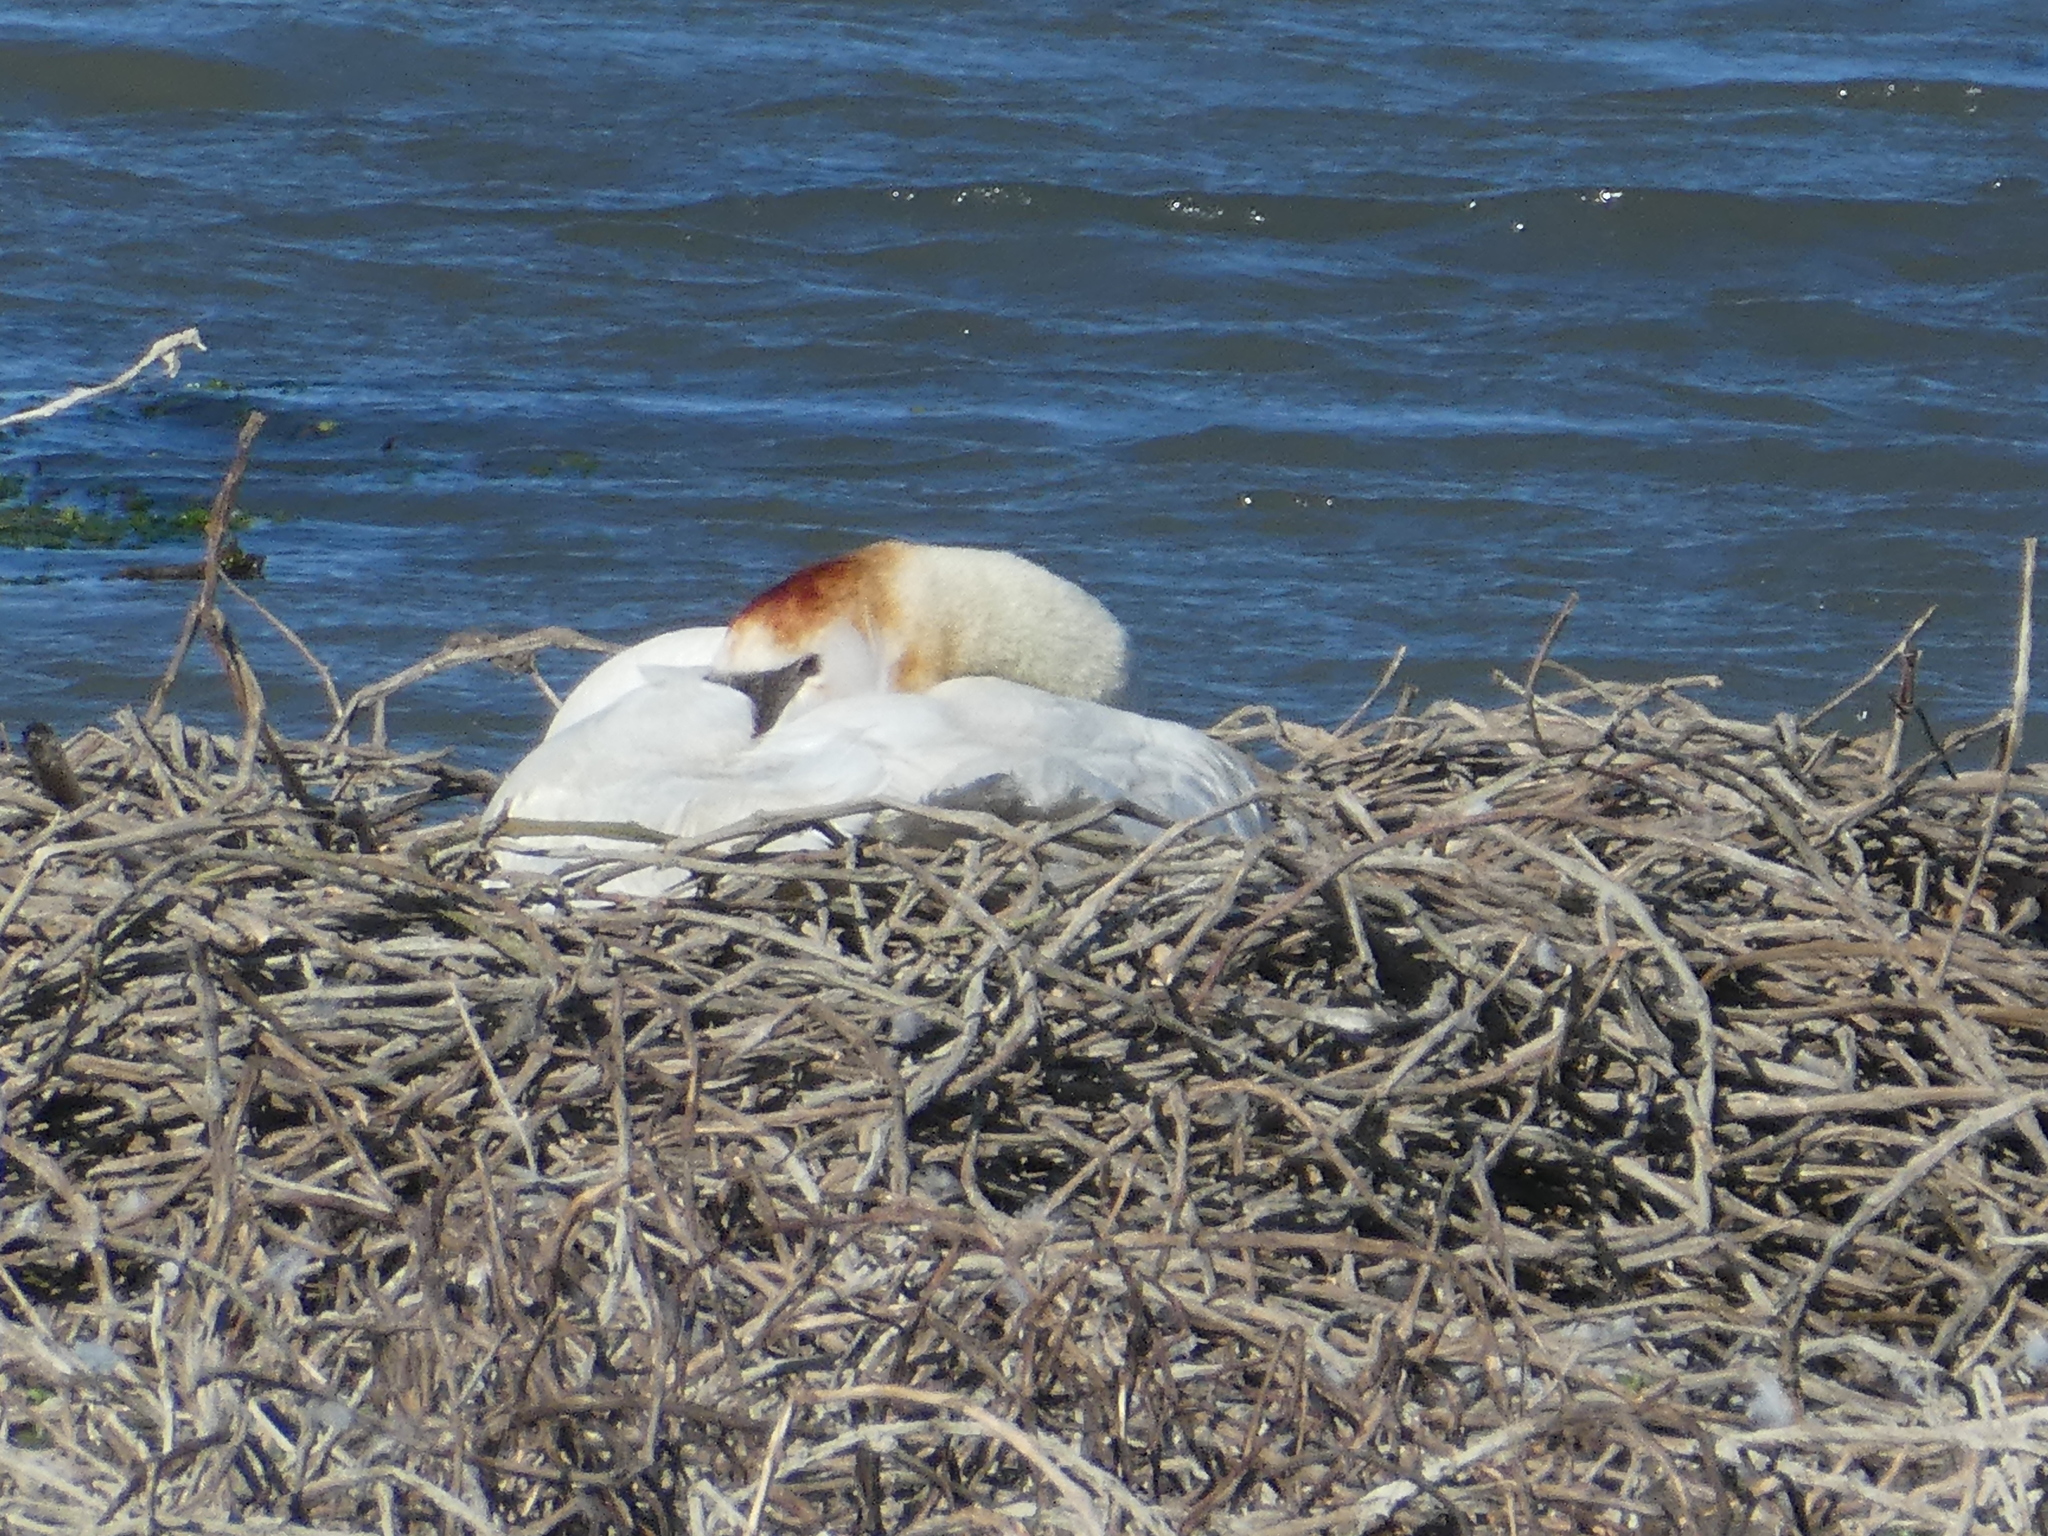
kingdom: Animalia
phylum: Chordata
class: Aves
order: Anseriformes
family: Anatidae
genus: Cygnus
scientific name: Cygnus olor
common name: Mute swan
